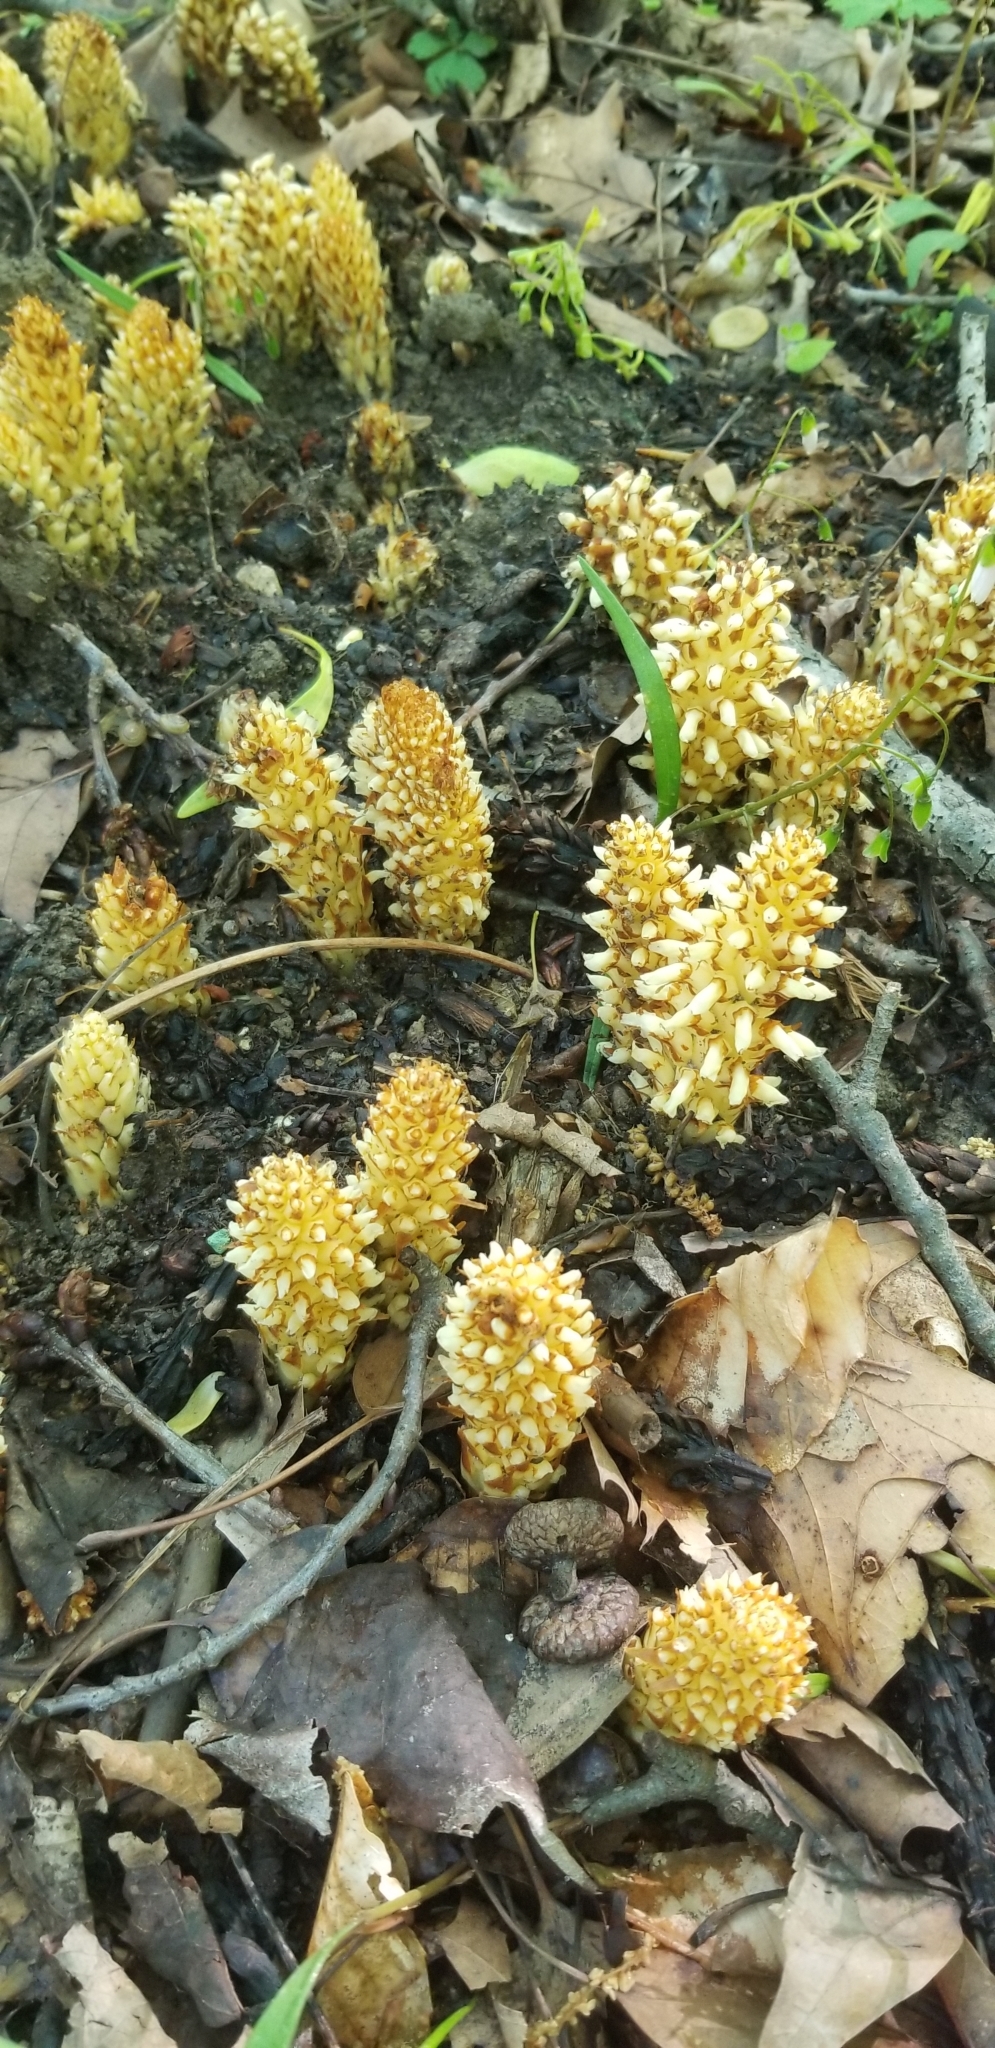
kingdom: Plantae
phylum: Tracheophyta
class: Magnoliopsida
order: Lamiales
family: Orobanchaceae
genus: Conopholis
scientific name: Conopholis americana
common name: American cancer-root
